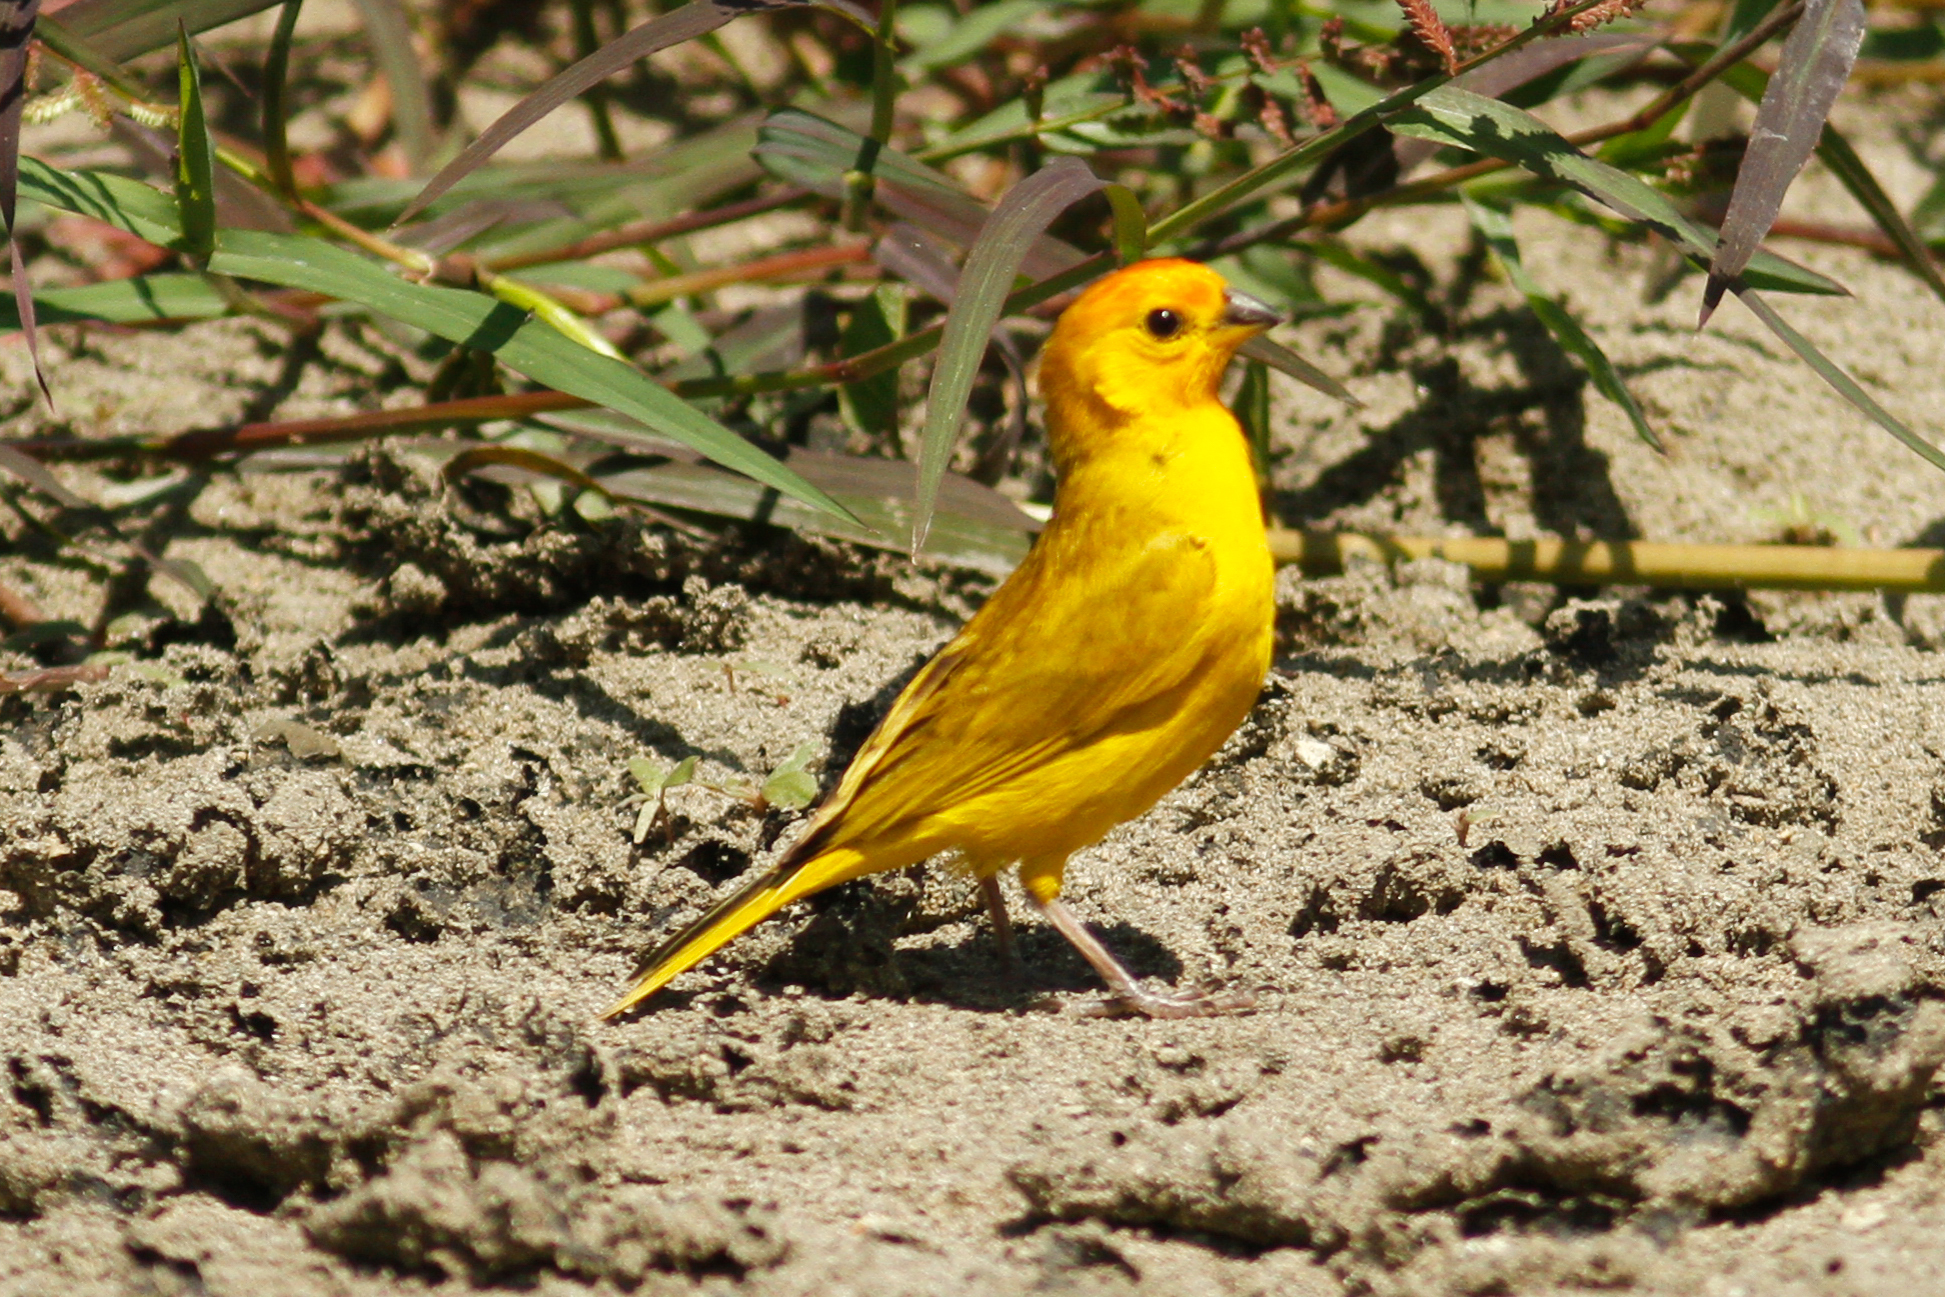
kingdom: Animalia
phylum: Chordata
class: Aves
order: Passeriformes
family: Thraupidae
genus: Sicalis
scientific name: Sicalis flaveola
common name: Saffron finch
